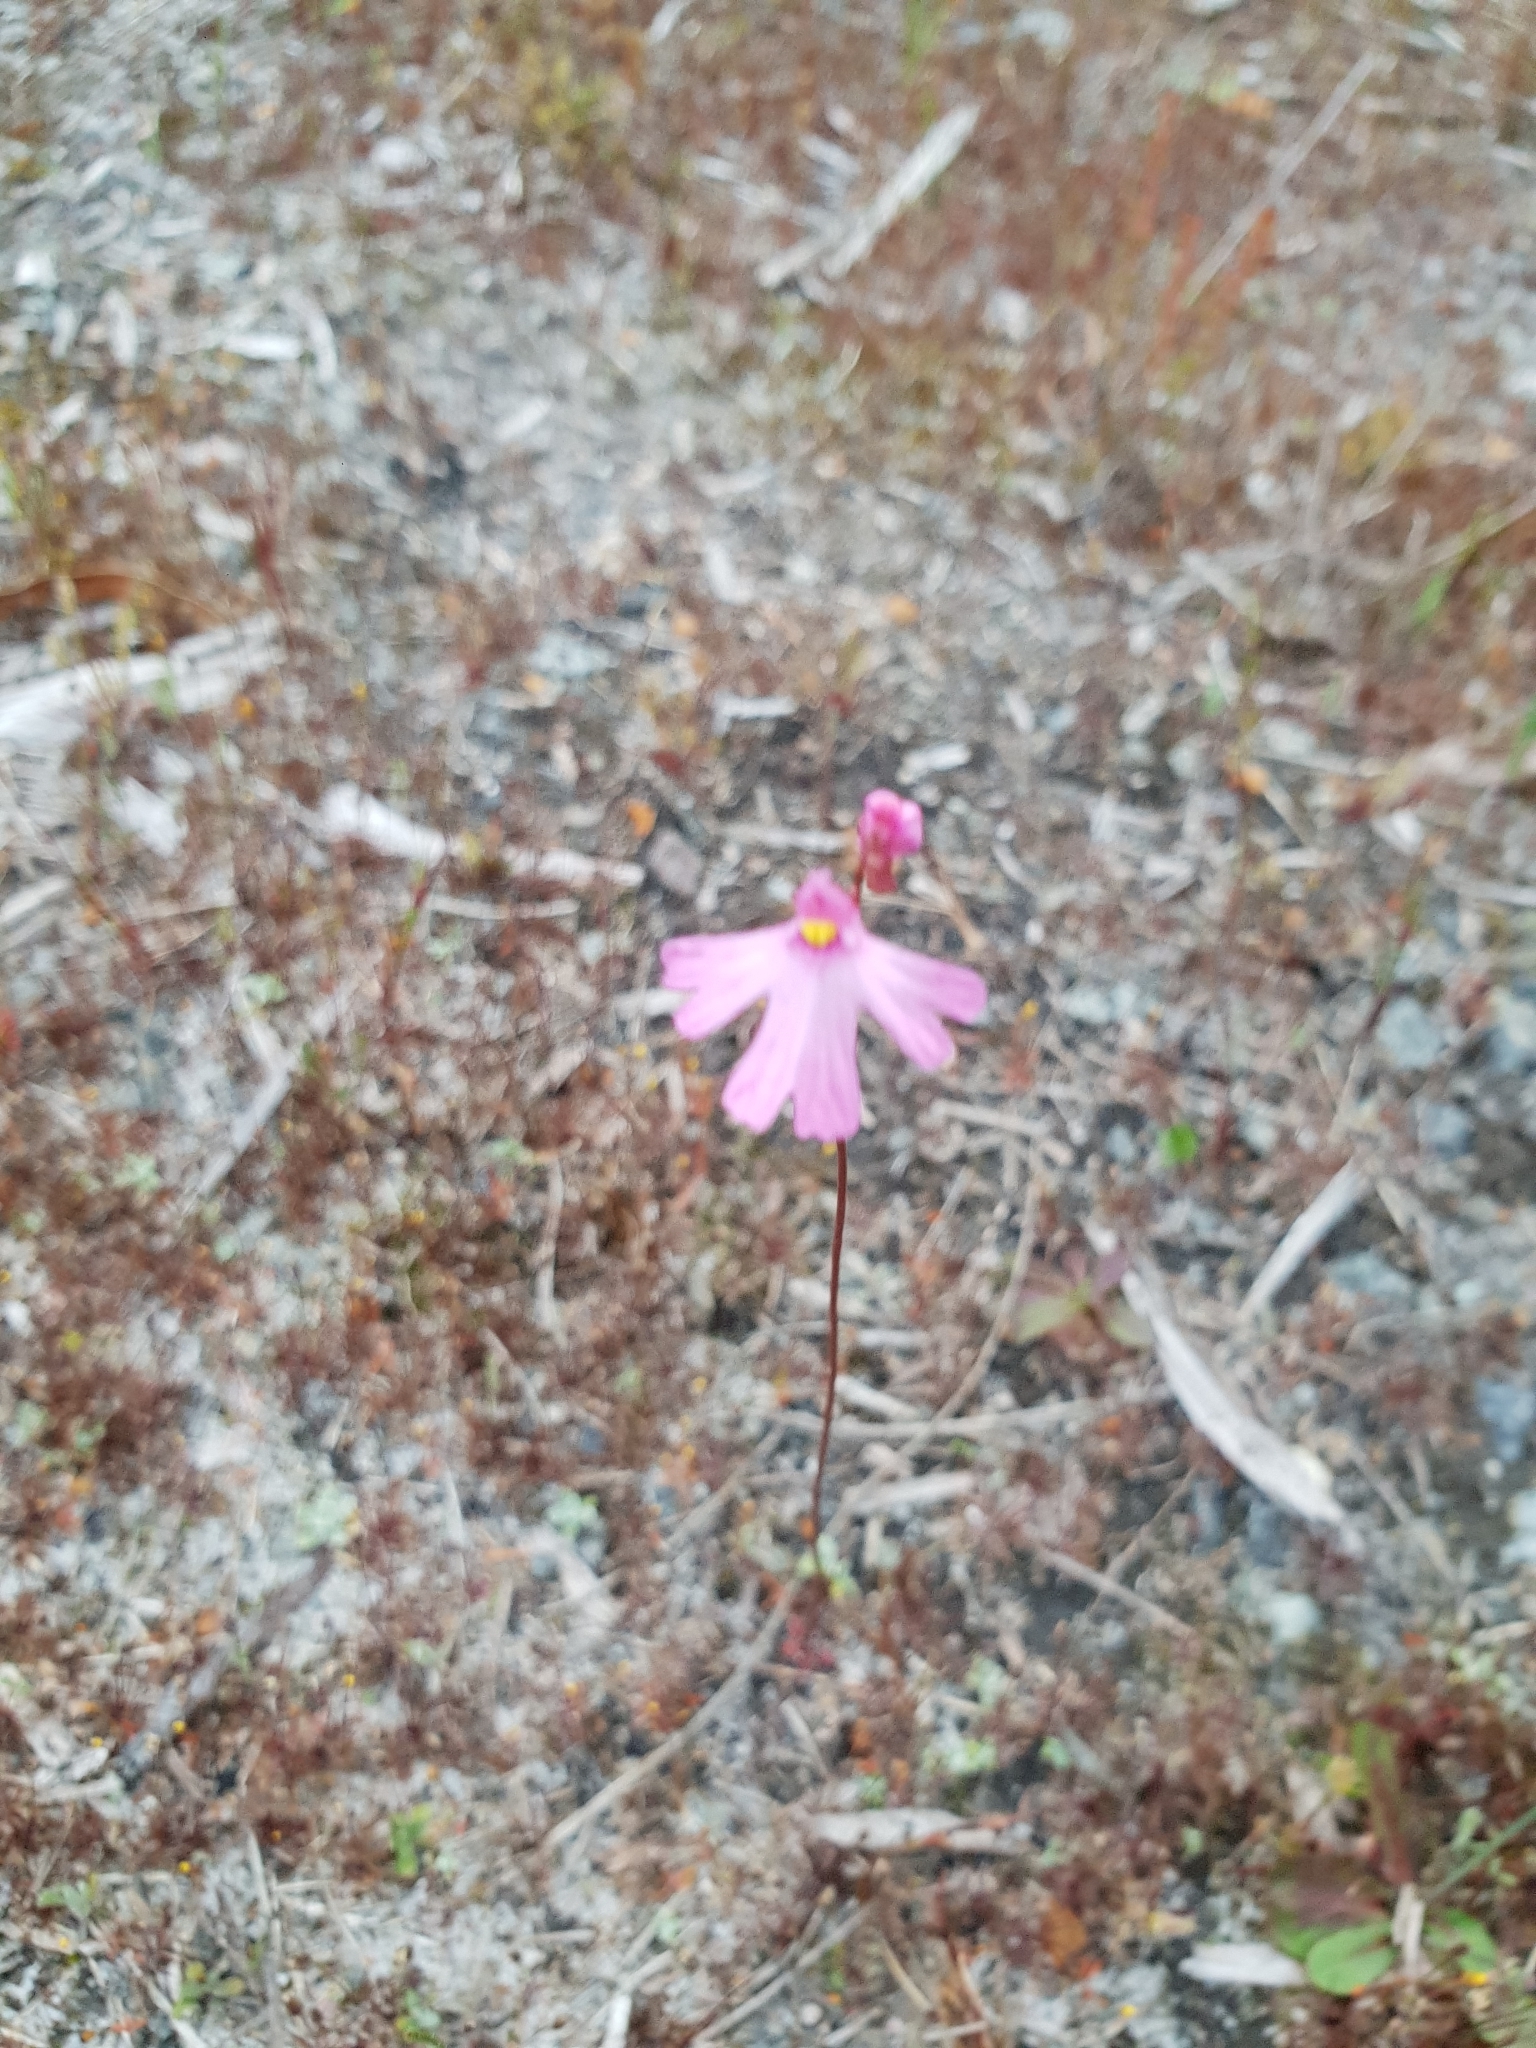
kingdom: Plantae
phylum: Tracheophyta
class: Magnoliopsida
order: Lamiales
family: Lentibulariaceae
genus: Utricularia
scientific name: Utricularia multifida
